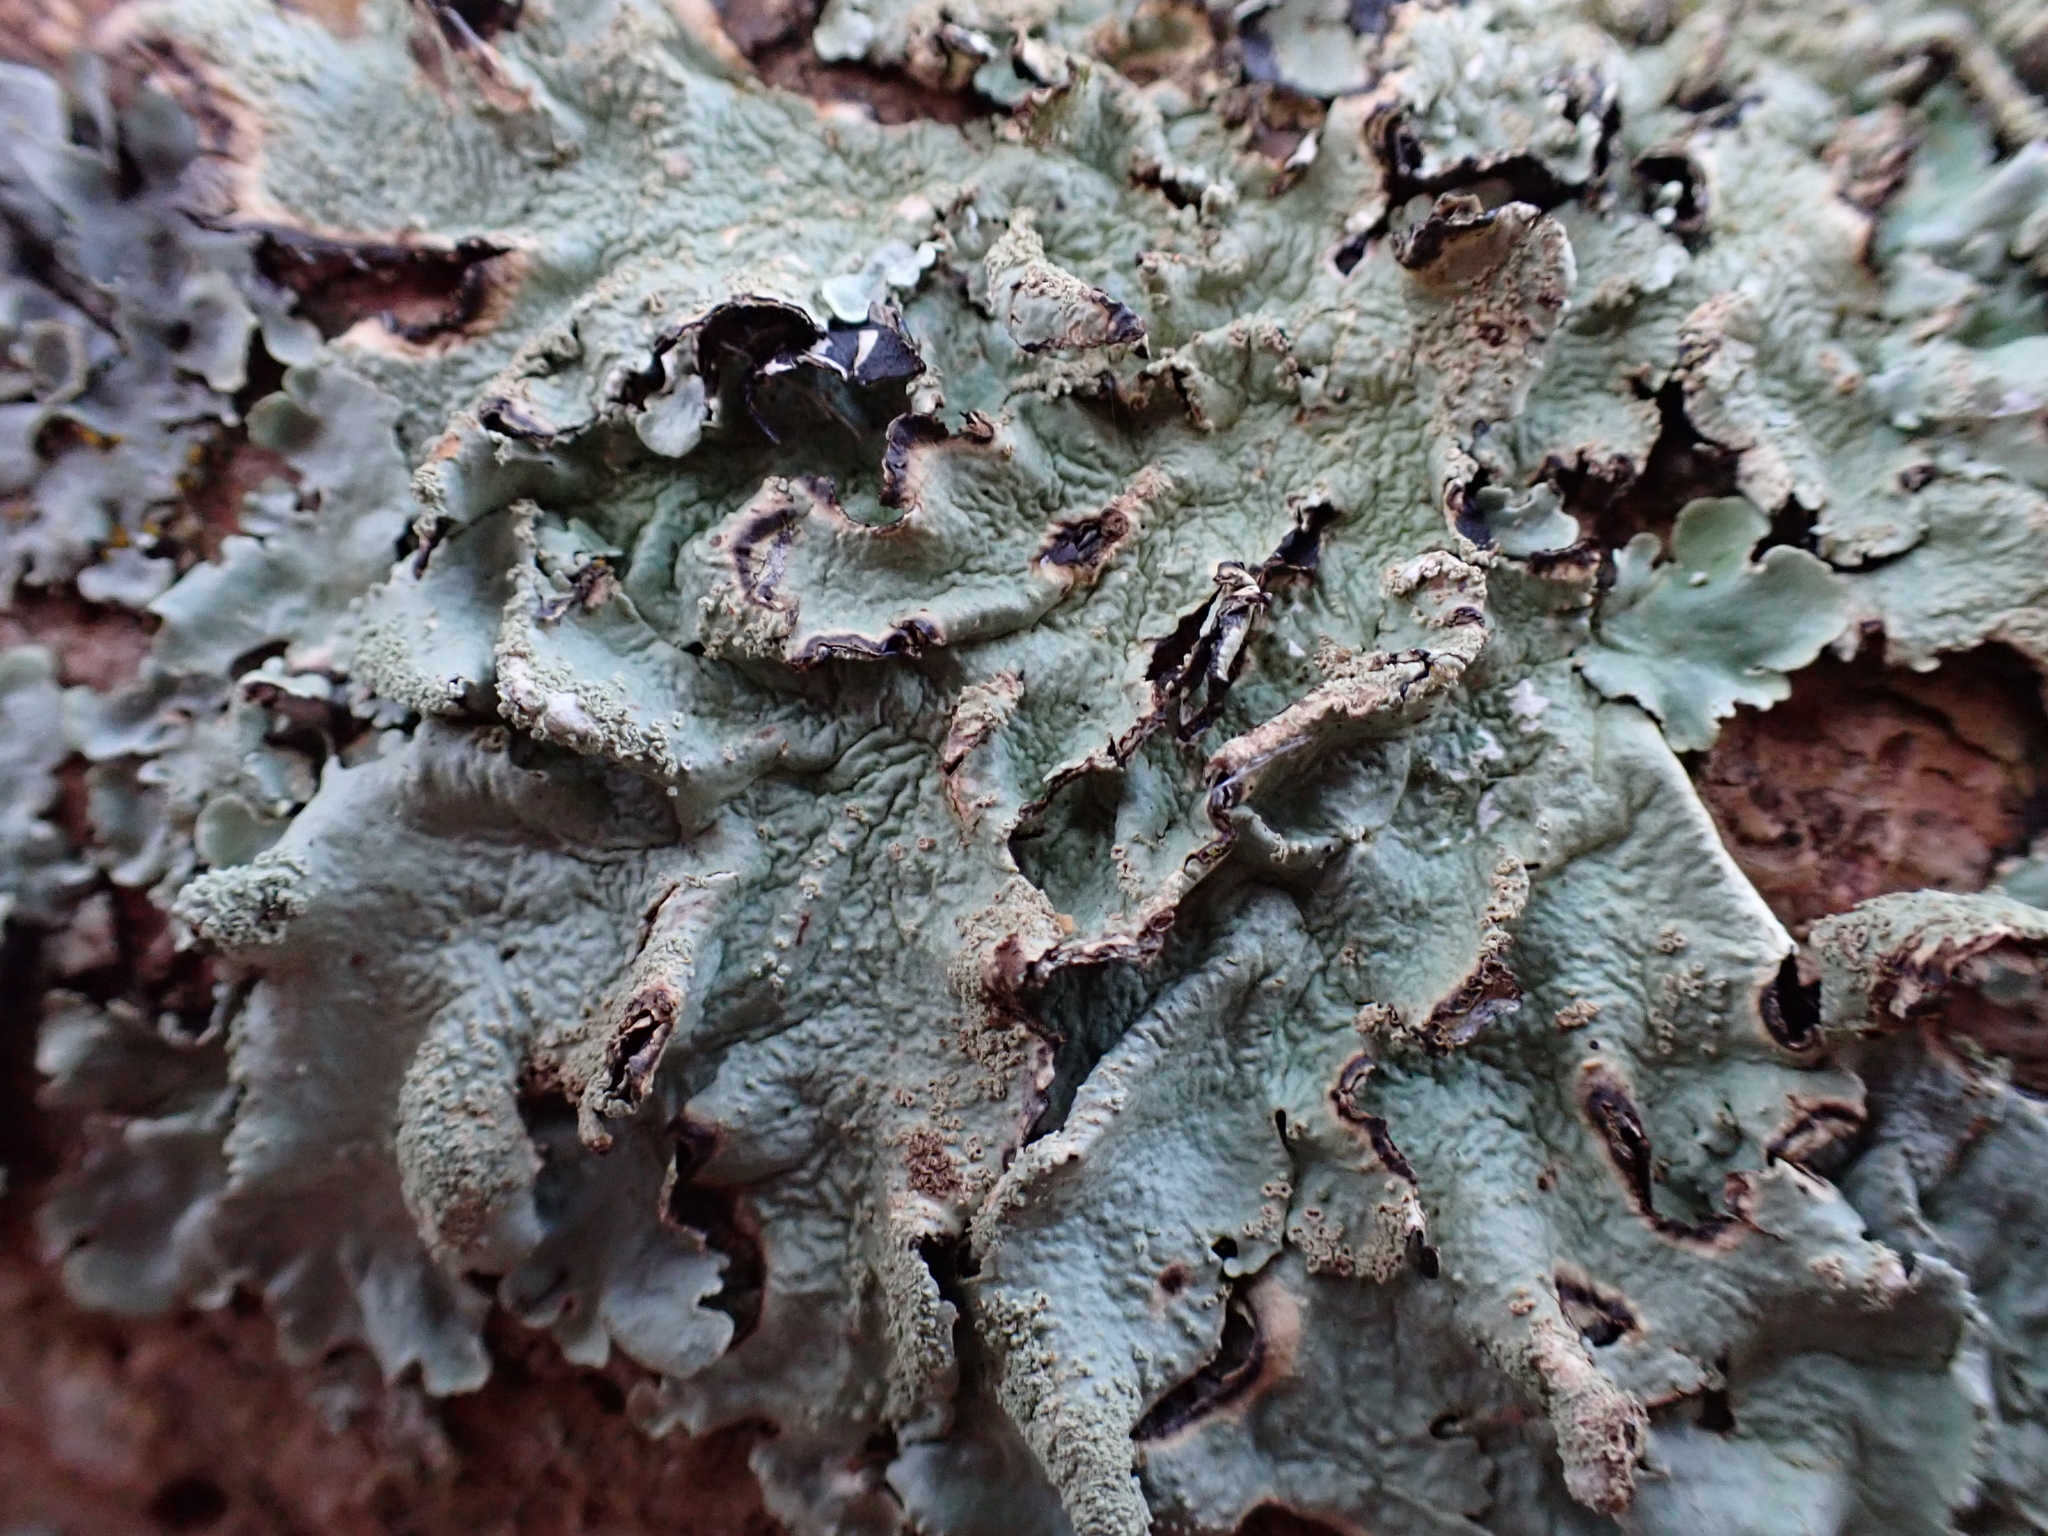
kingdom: Fungi
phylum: Ascomycota
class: Lecanoromycetes
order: Lecanorales
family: Parmeliaceae
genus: Flavoparmelia
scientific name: Flavoparmelia caperata
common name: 40-mile per hour lichen
